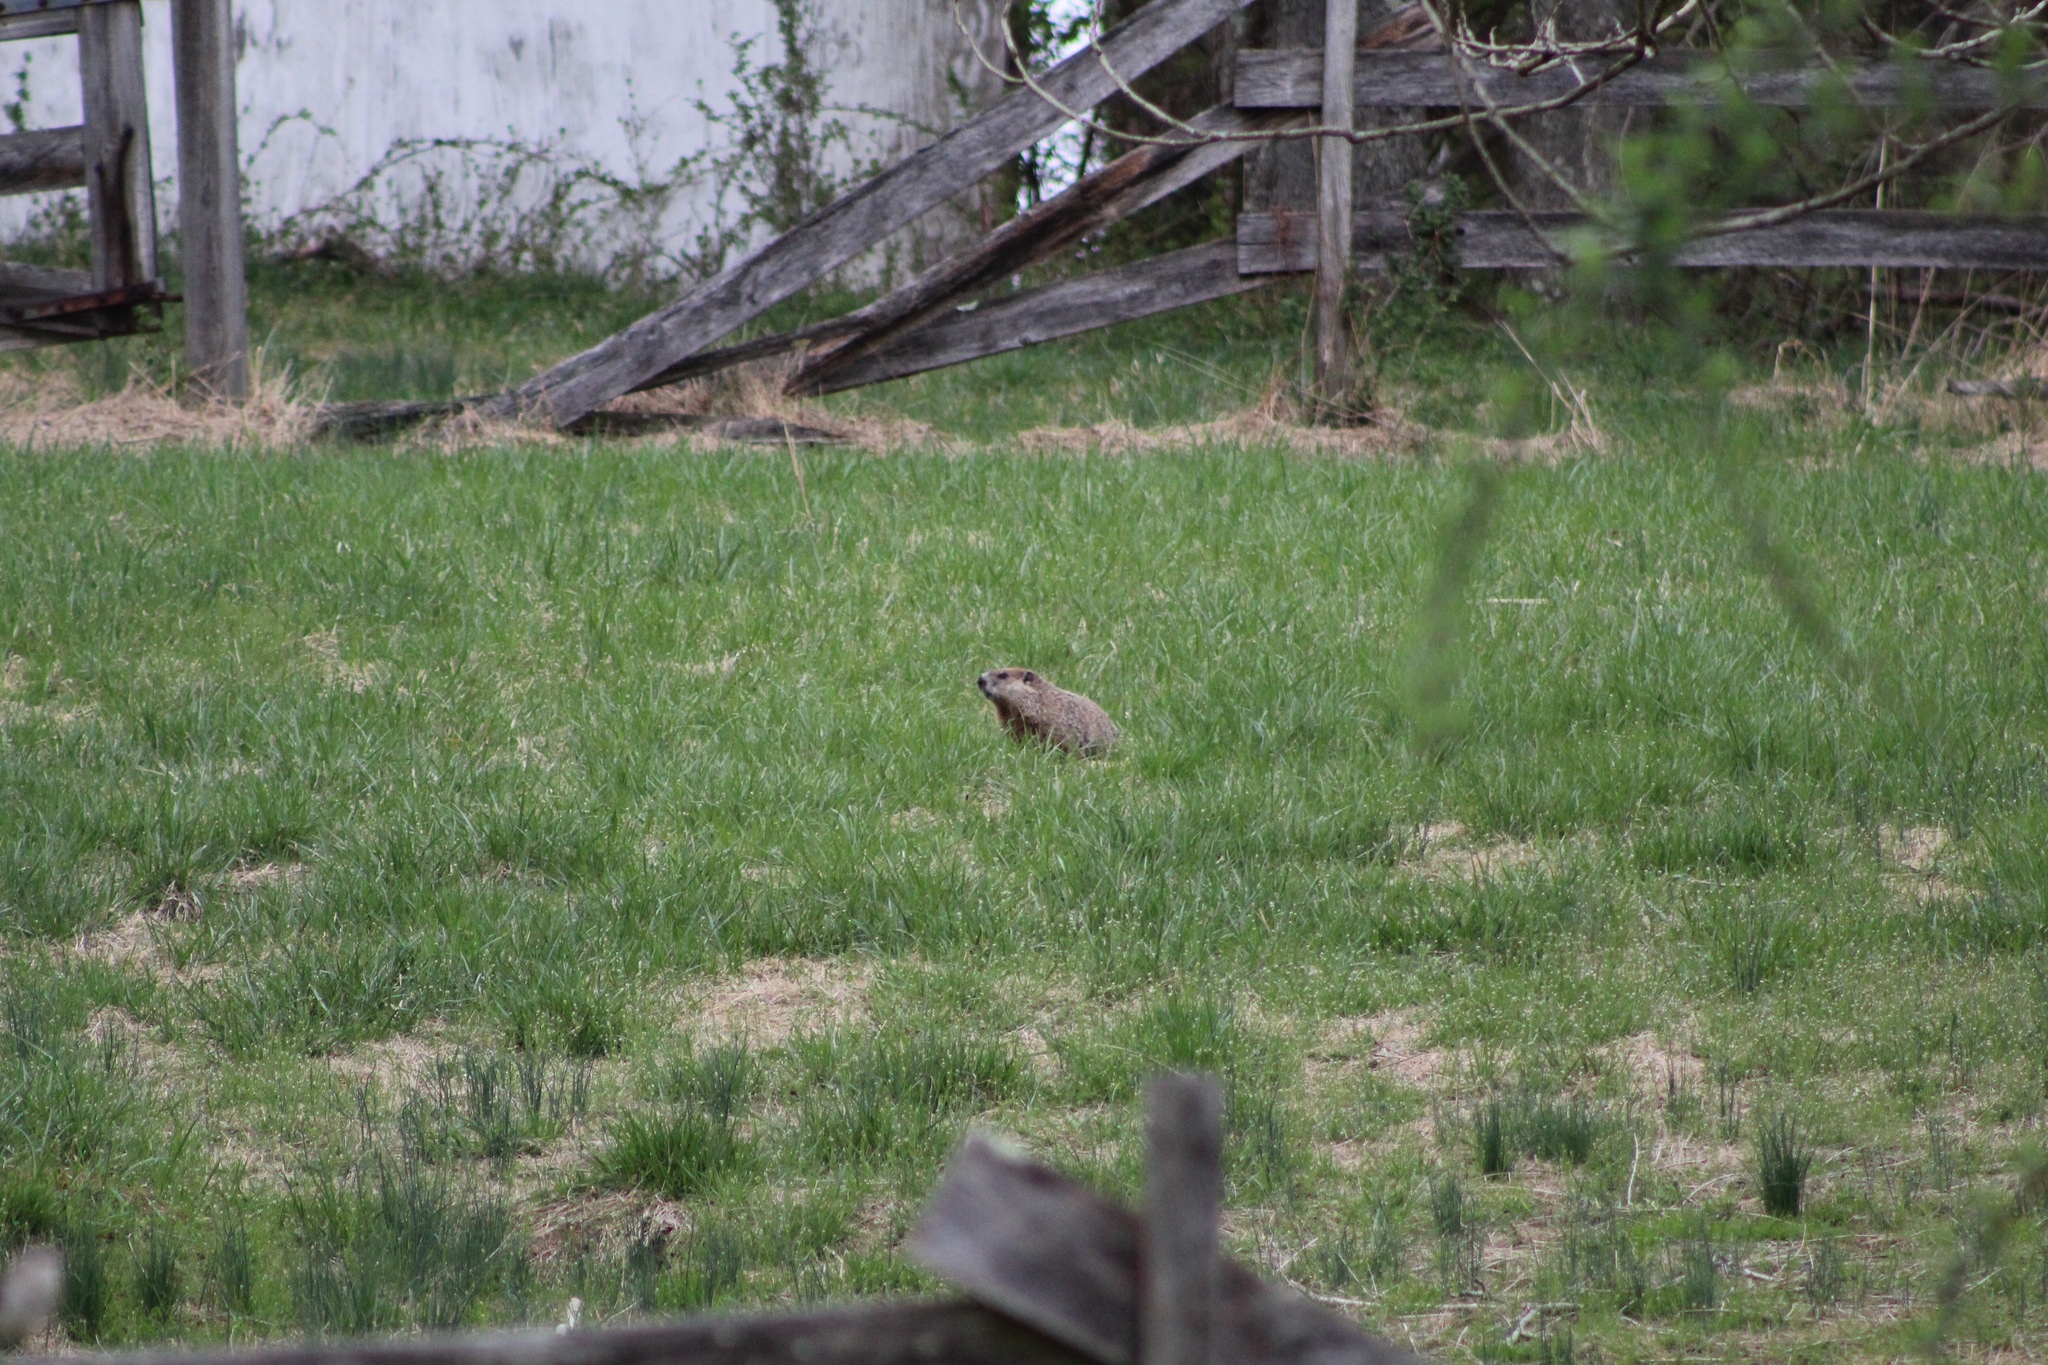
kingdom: Animalia
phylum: Chordata
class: Mammalia
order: Rodentia
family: Sciuridae
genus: Marmota
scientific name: Marmota monax
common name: Groundhog
